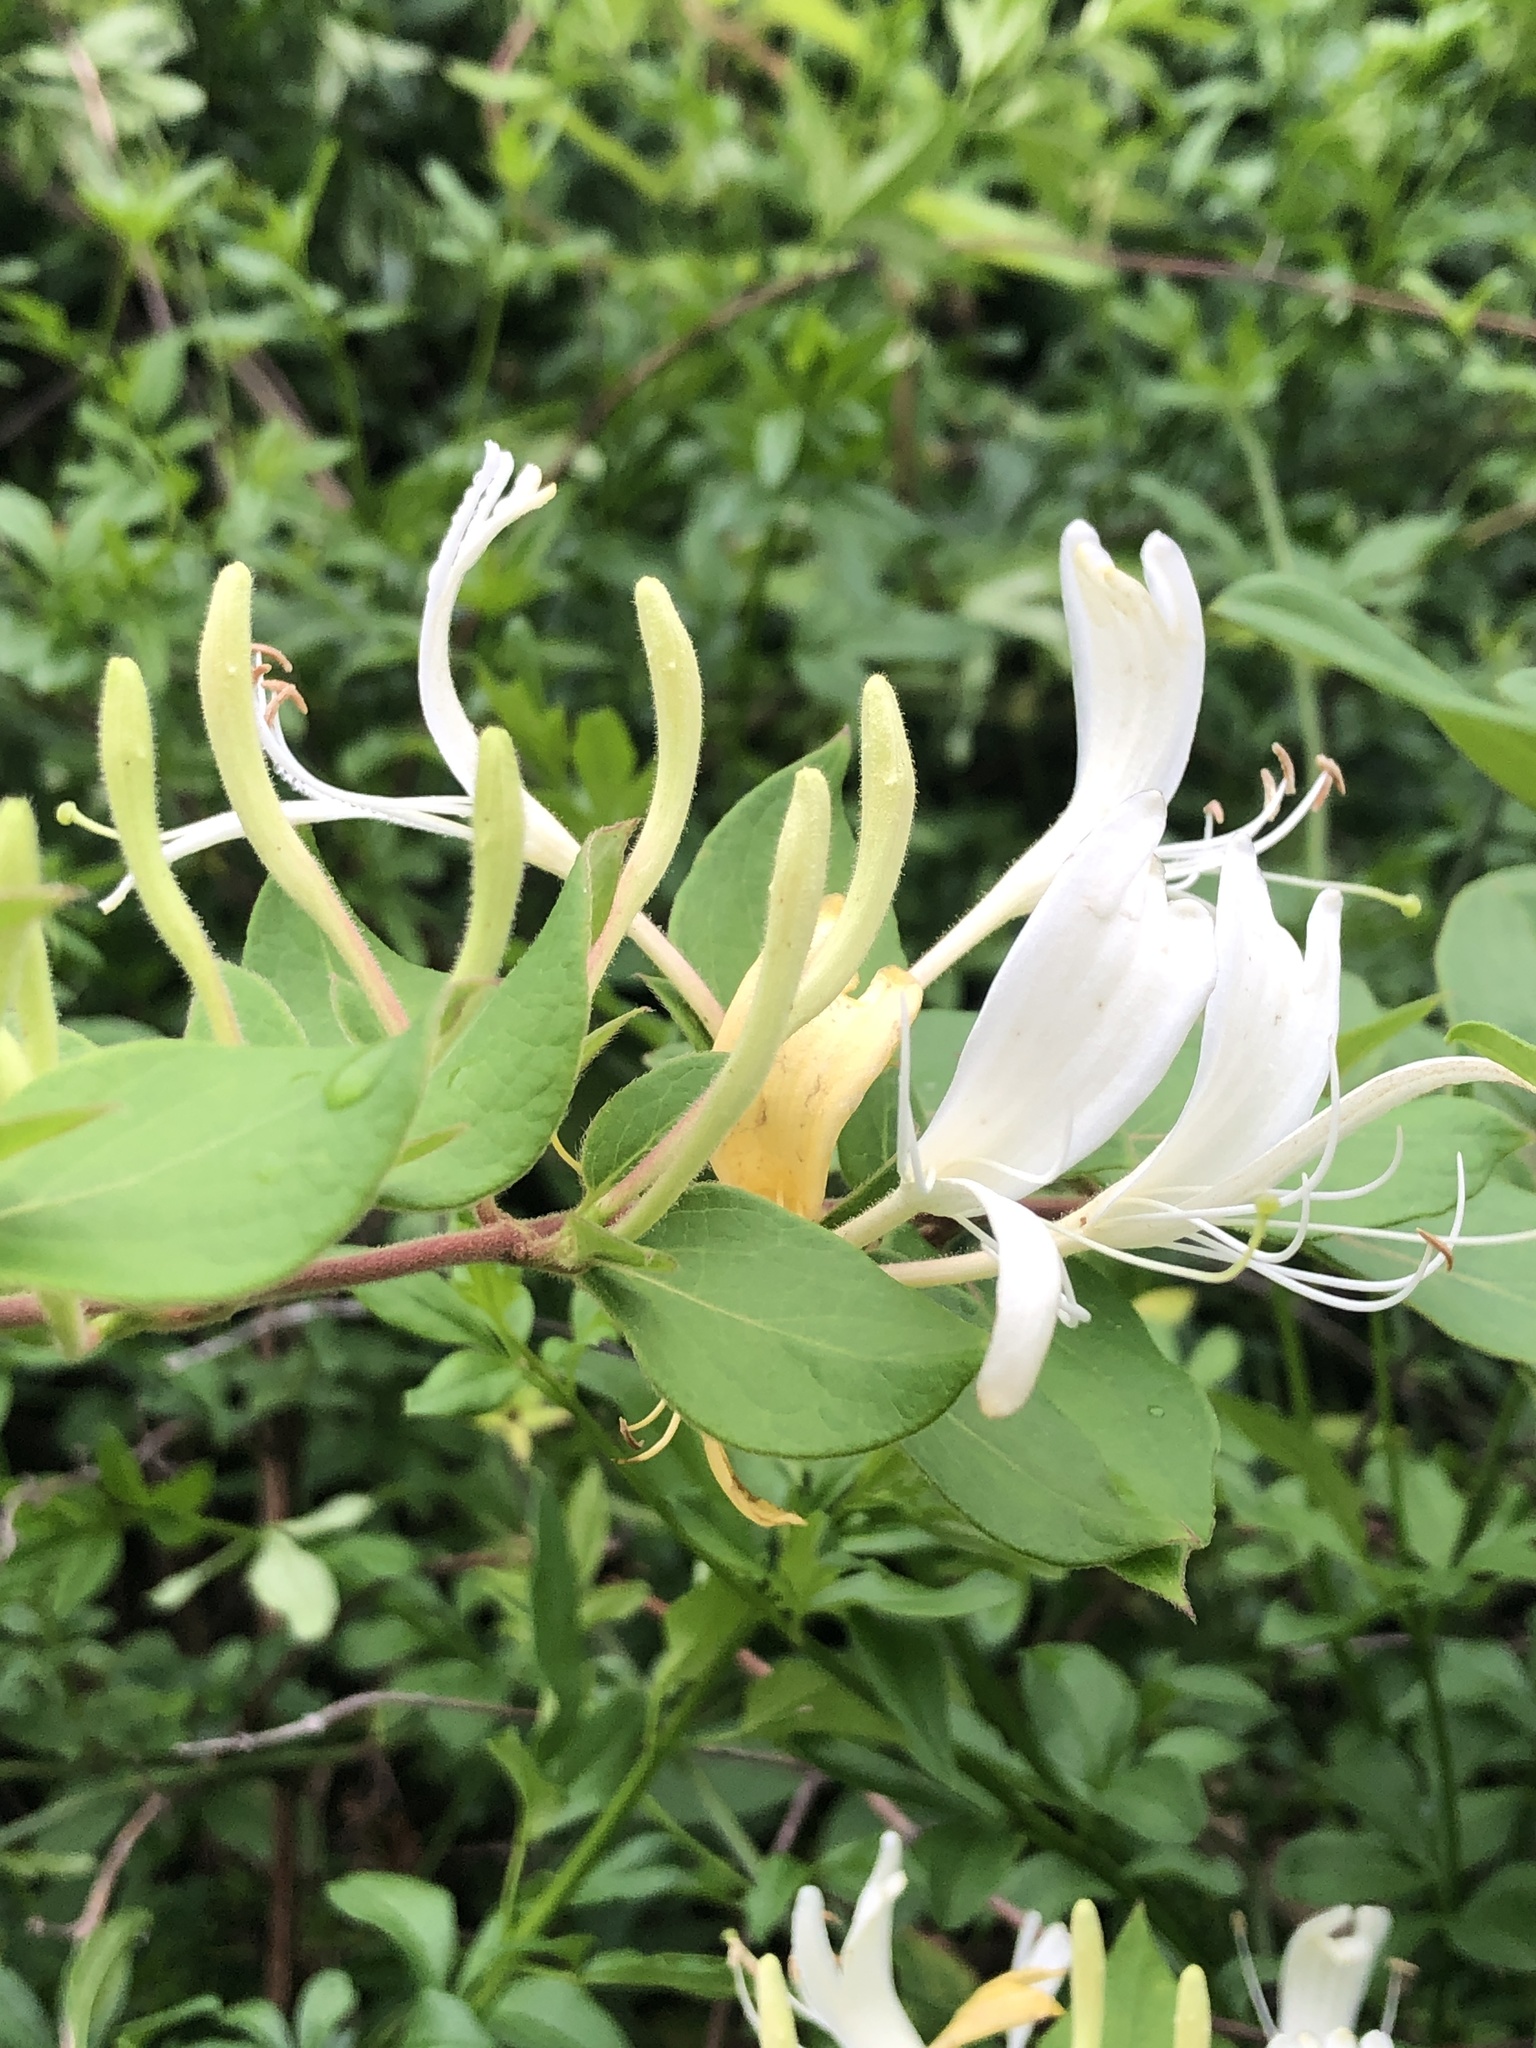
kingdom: Plantae
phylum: Tracheophyta
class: Magnoliopsida
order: Dipsacales
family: Caprifoliaceae
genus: Lonicera
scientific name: Lonicera japonica
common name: Japanese honeysuckle
